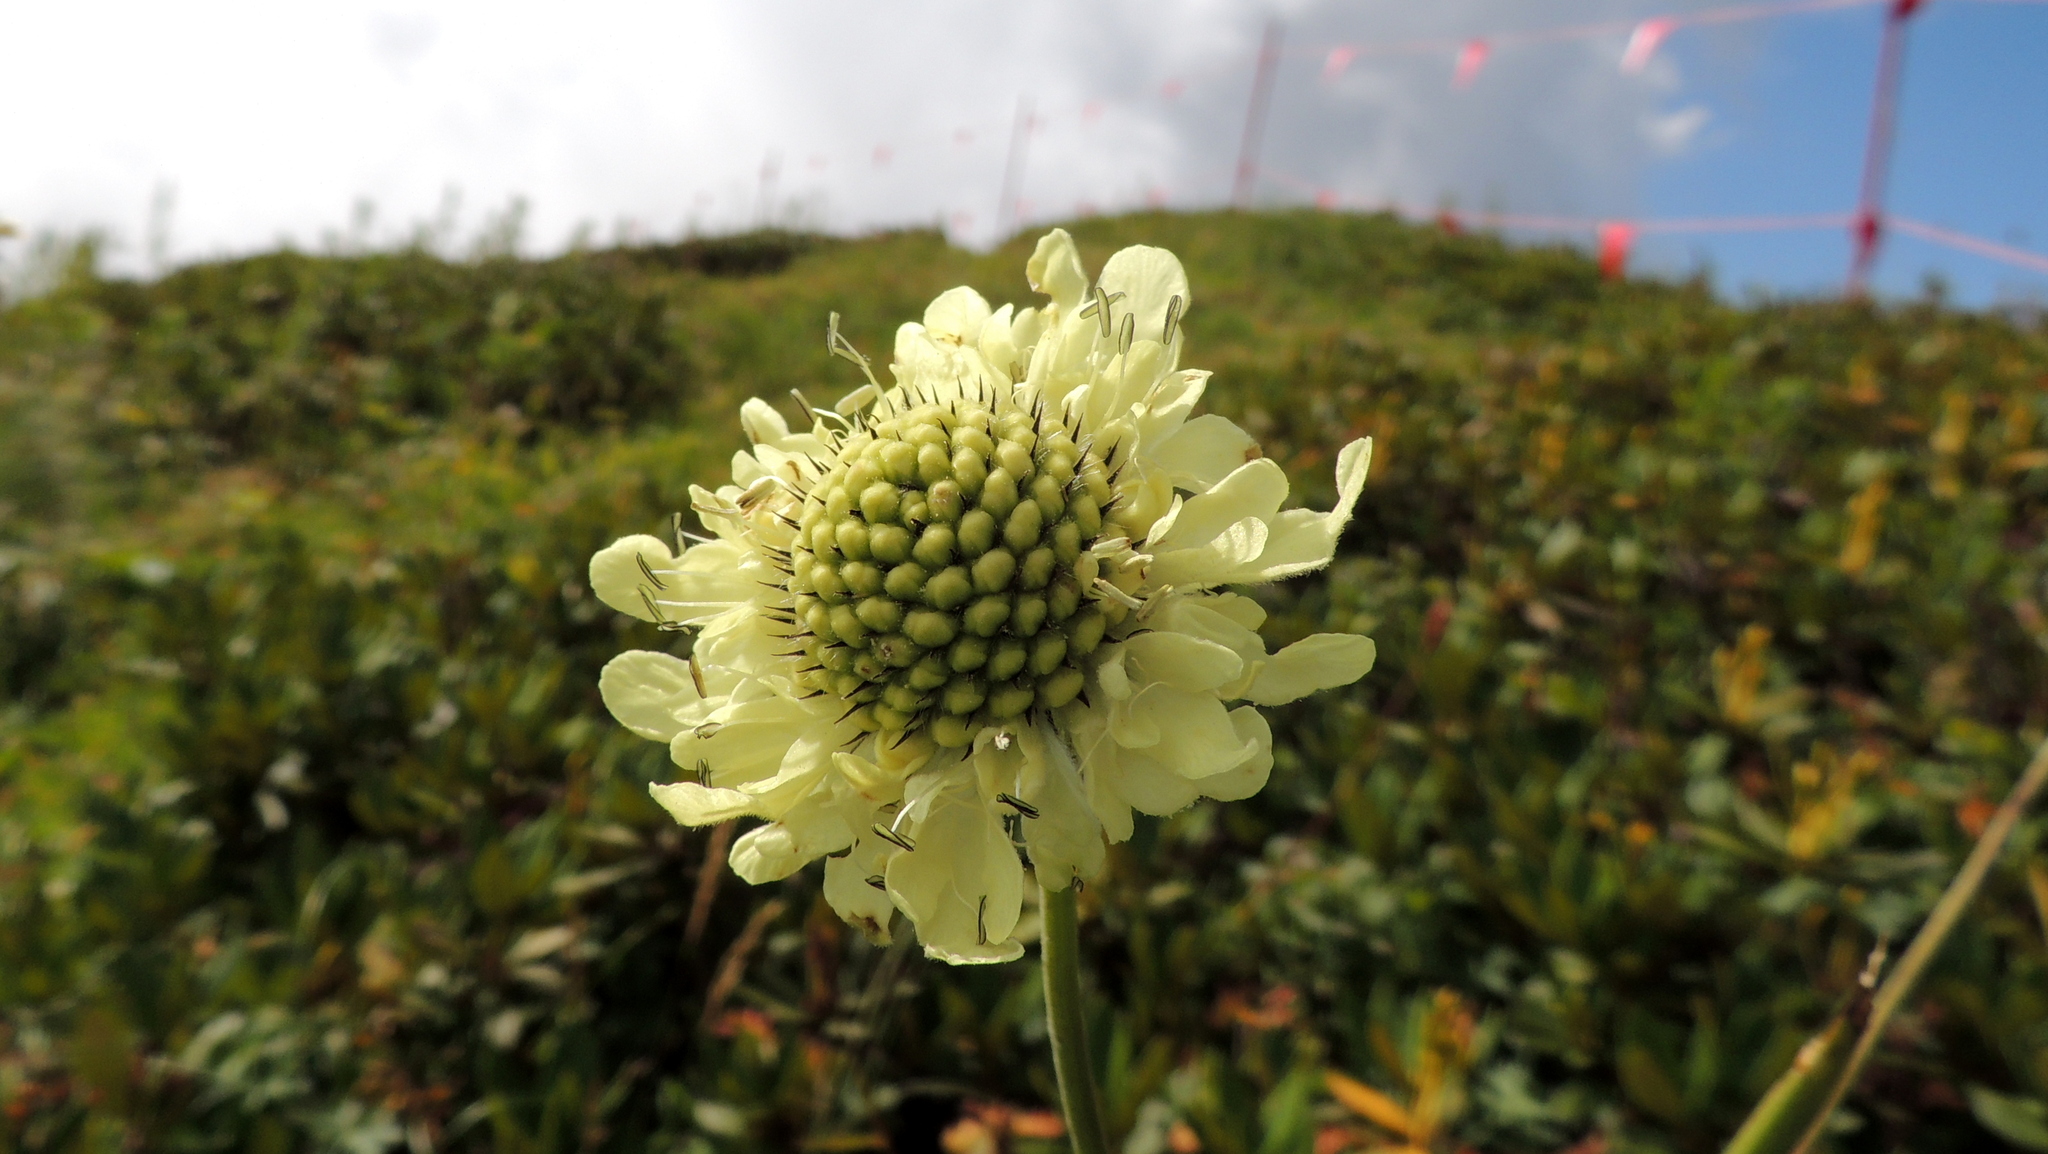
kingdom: Plantae
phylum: Tracheophyta
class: Magnoliopsida
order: Dipsacales
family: Caprifoliaceae
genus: Cephalaria
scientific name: Cephalaria gigantea
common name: Tatarian cephalaria
